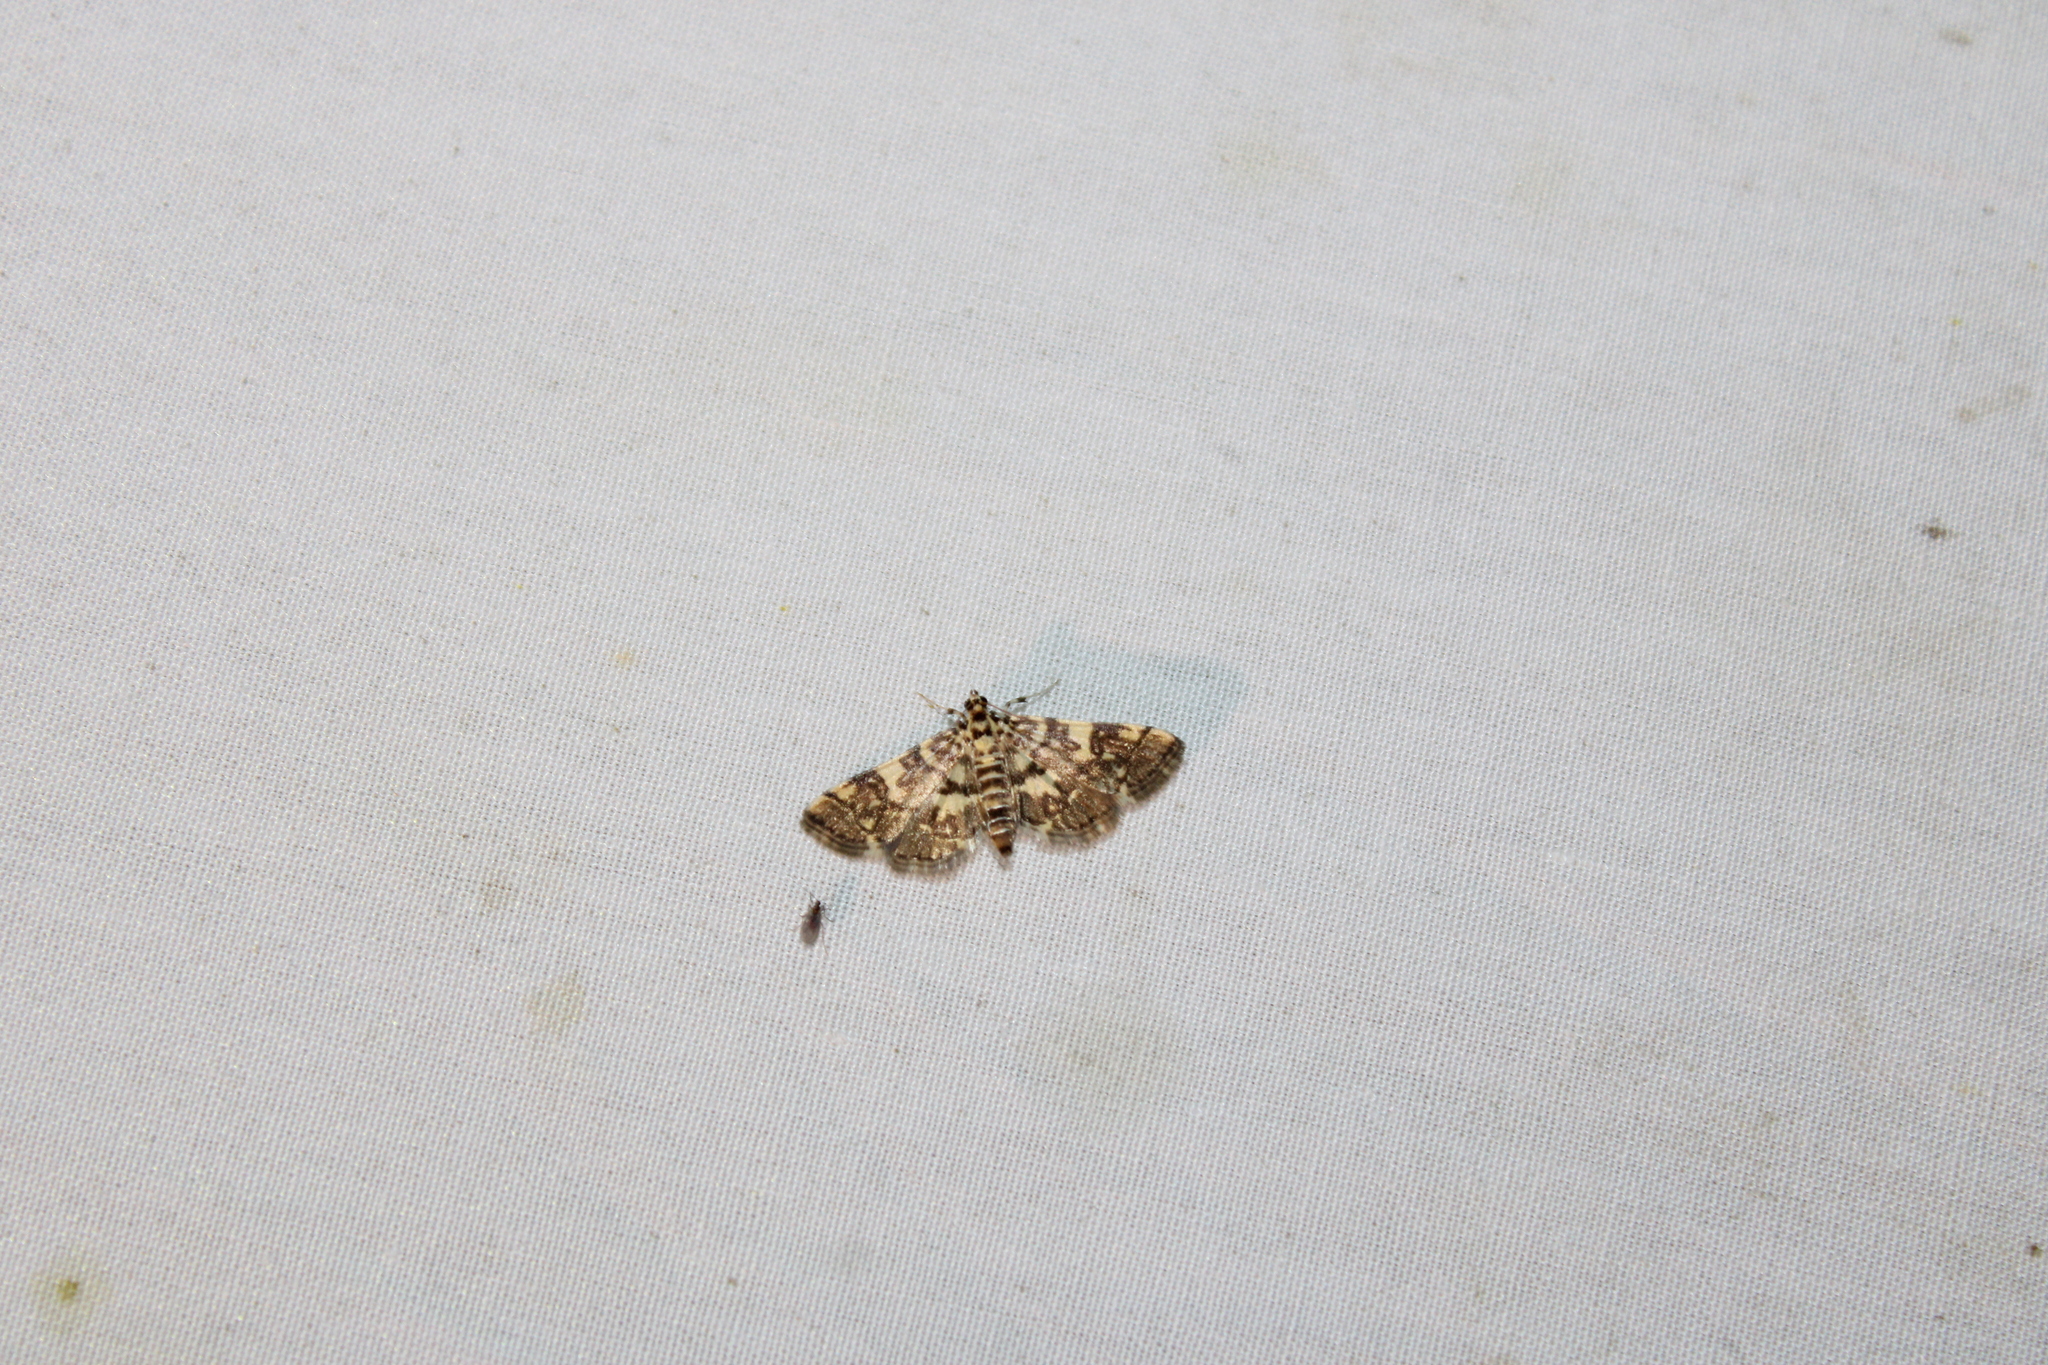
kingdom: Animalia
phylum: Arthropoda
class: Insecta
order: Lepidoptera
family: Crambidae
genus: Apogeshna
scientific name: Apogeshna stenialis
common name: Checkered apogeshna moth
